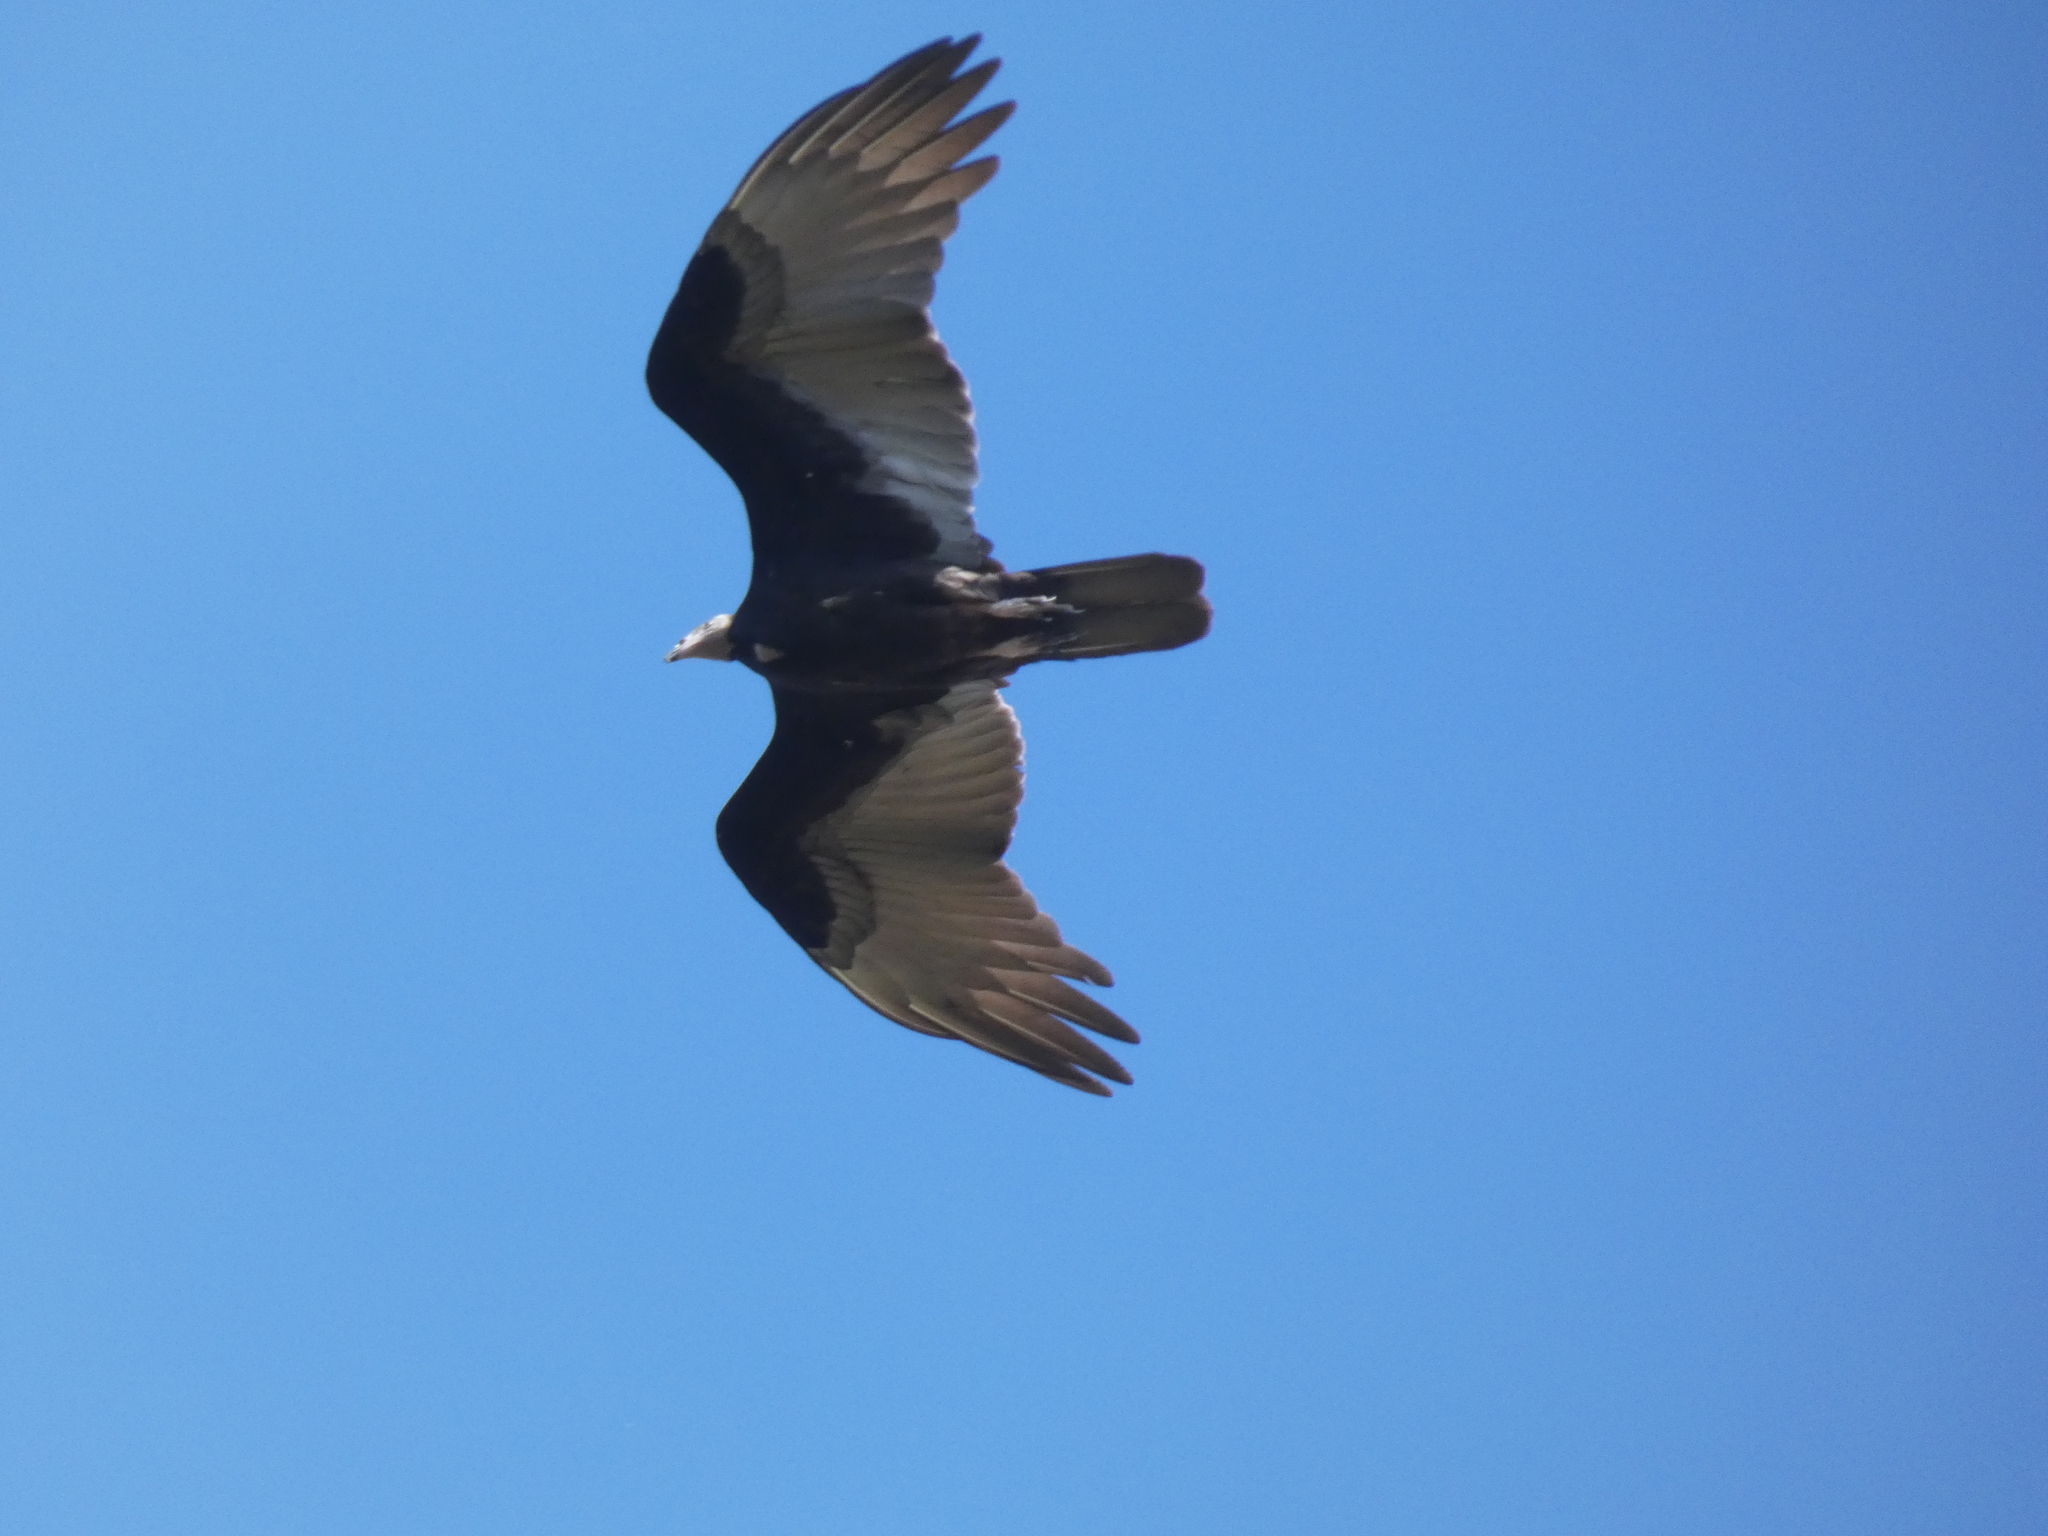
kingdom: Animalia
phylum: Chordata
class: Aves
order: Accipitriformes
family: Cathartidae
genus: Cathartes
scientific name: Cathartes burrovianus
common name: Lesser yellow-headed vulture
